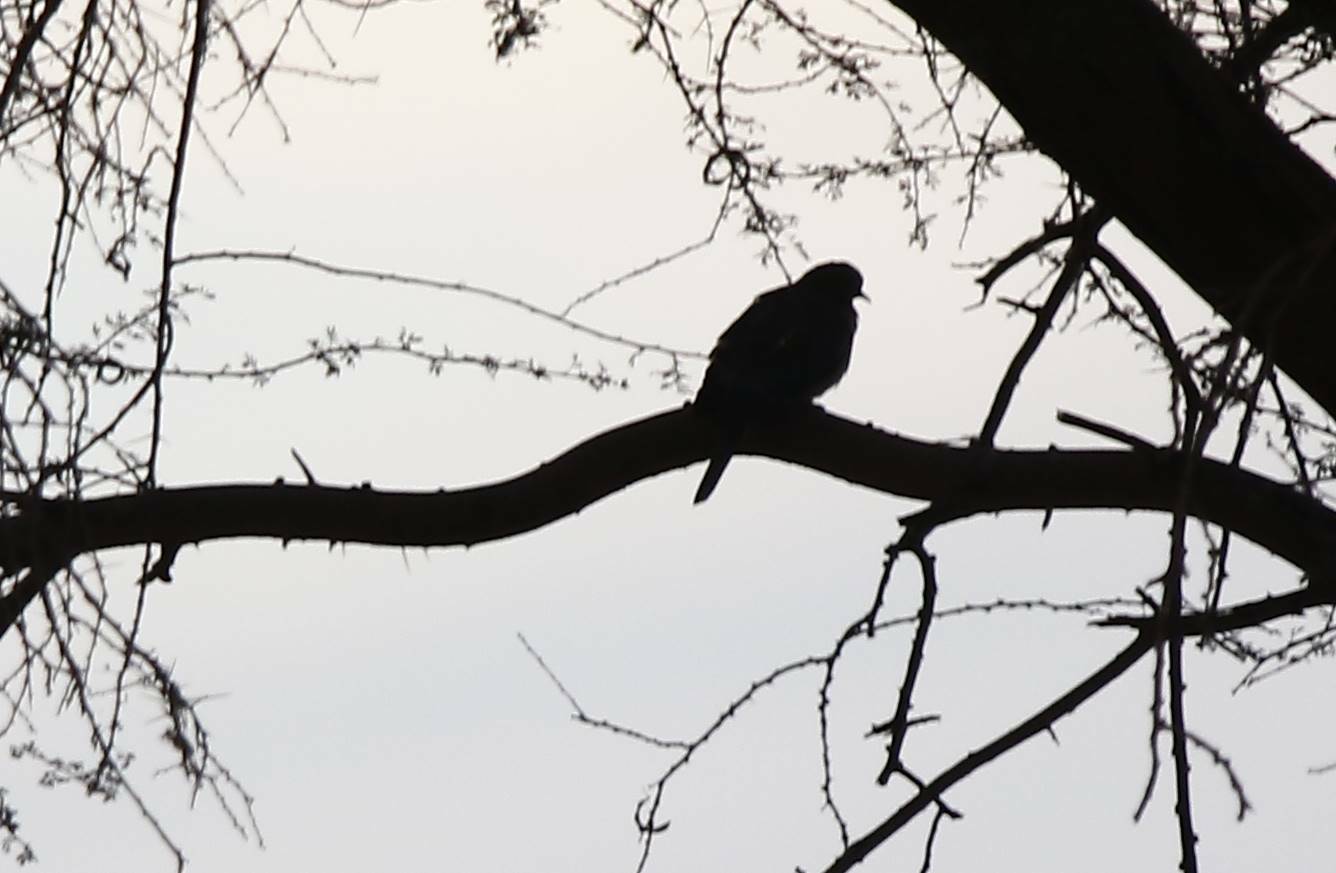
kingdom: Animalia
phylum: Chordata
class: Aves
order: Columbiformes
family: Columbidae
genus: Spilopelia
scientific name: Spilopelia senegalensis
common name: Laughing dove
